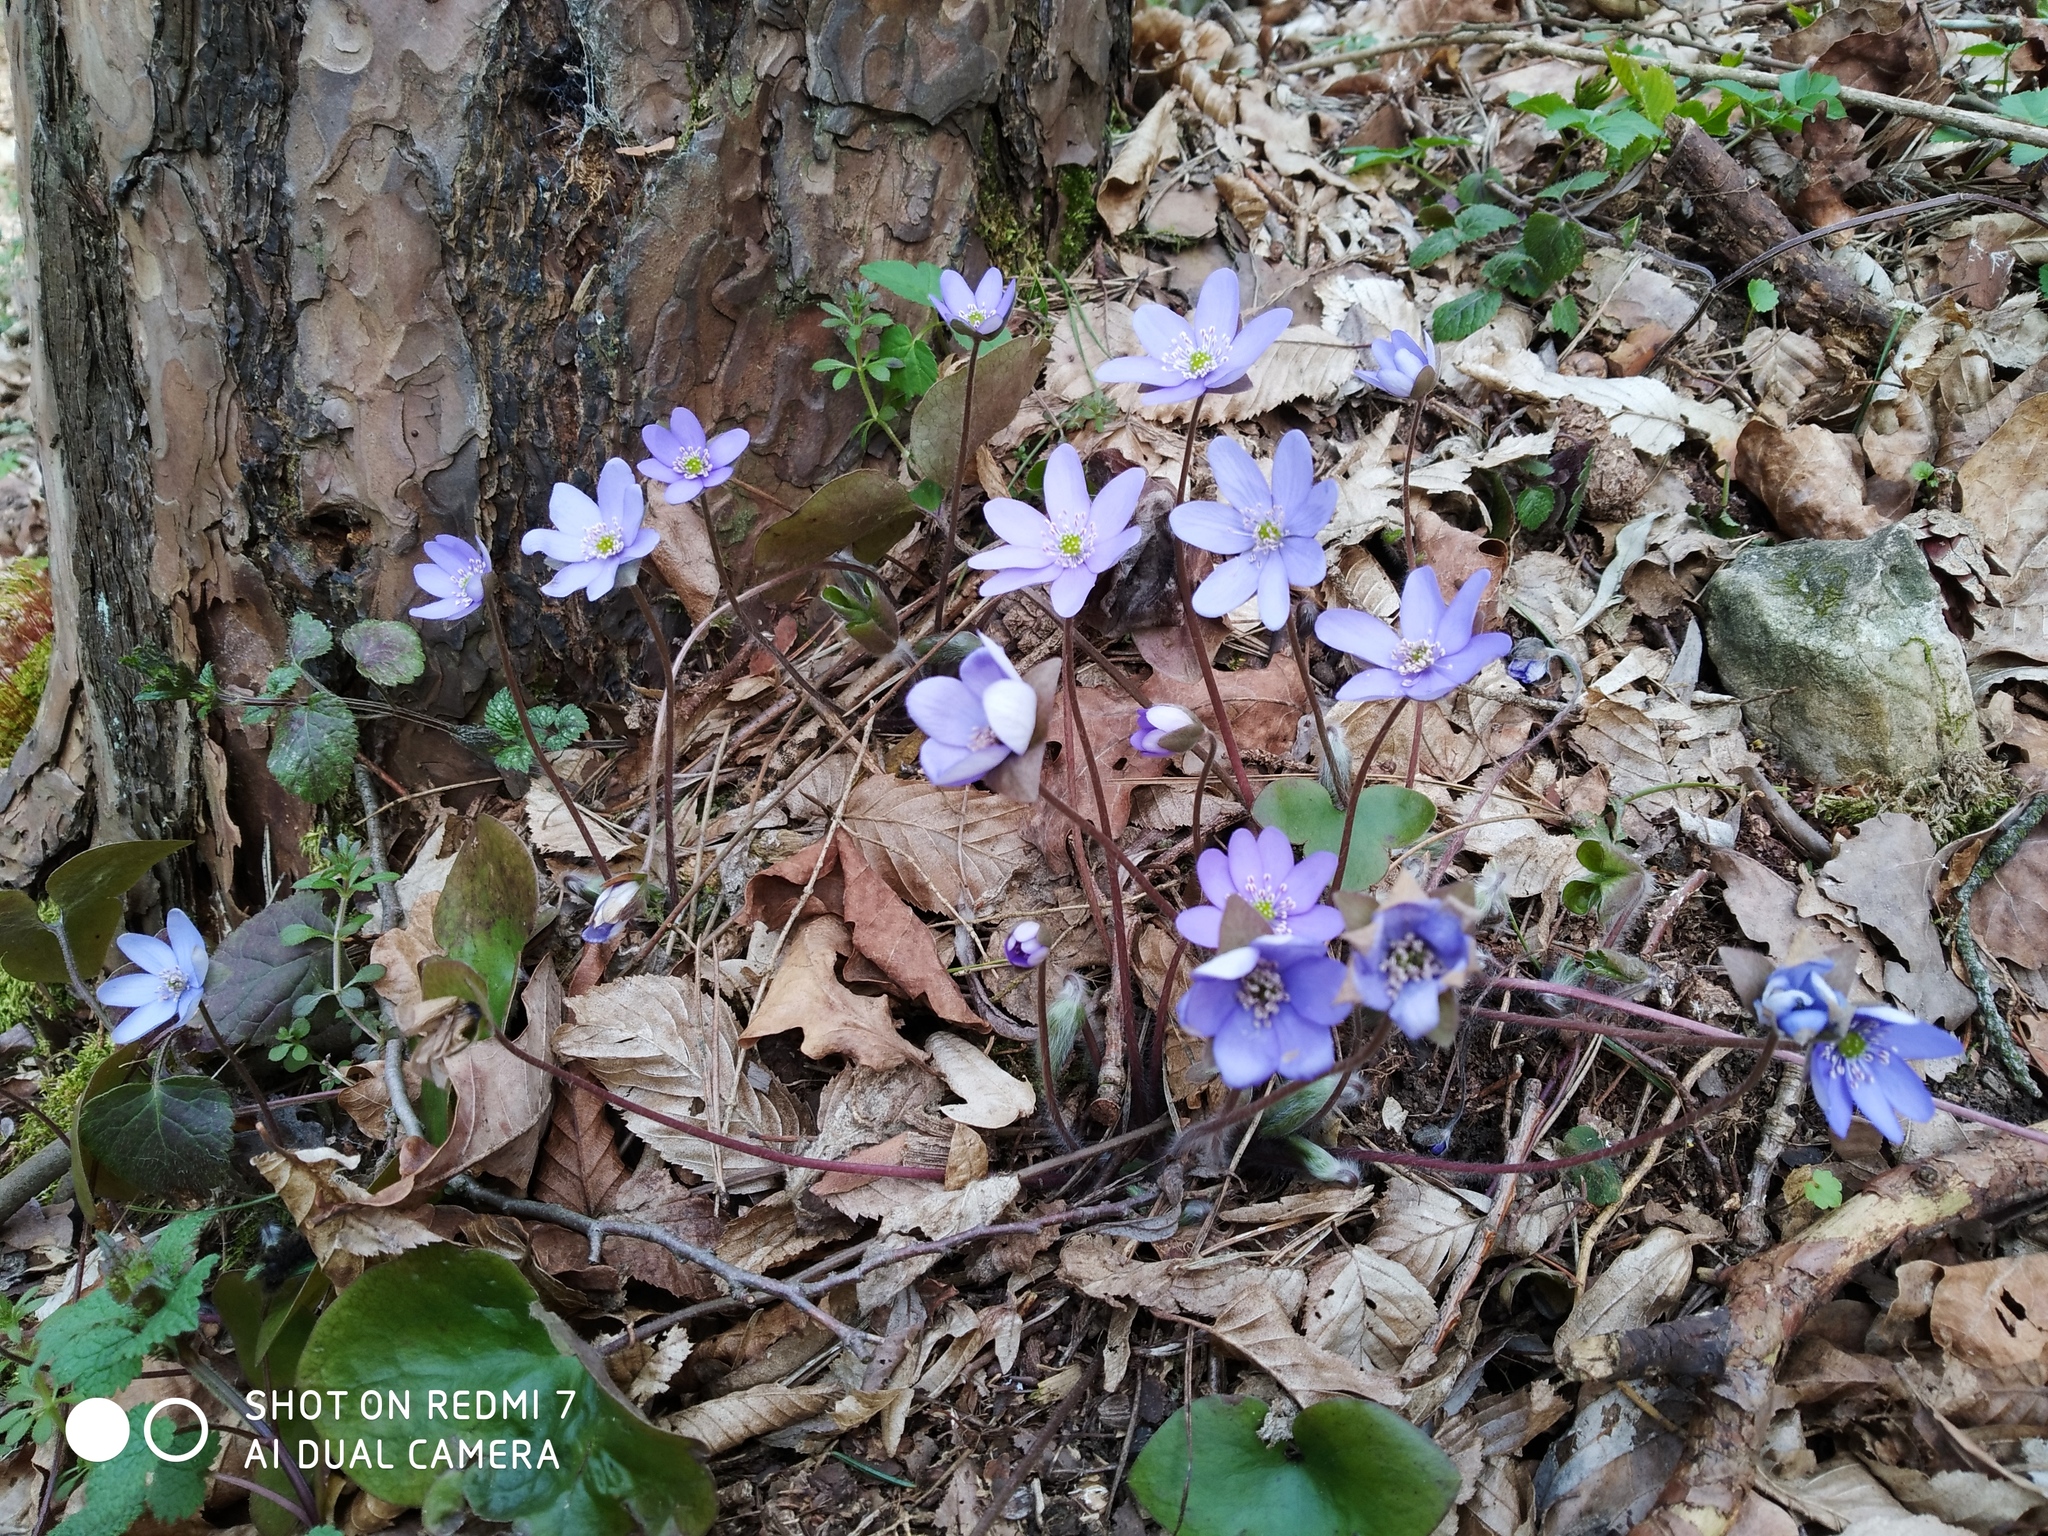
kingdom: Plantae
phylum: Tracheophyta
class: Magnoliopsida
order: Ranunculales
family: Ranunculaceae
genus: Hepatica
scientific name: Hepatica nobilis
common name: Liverleaf
